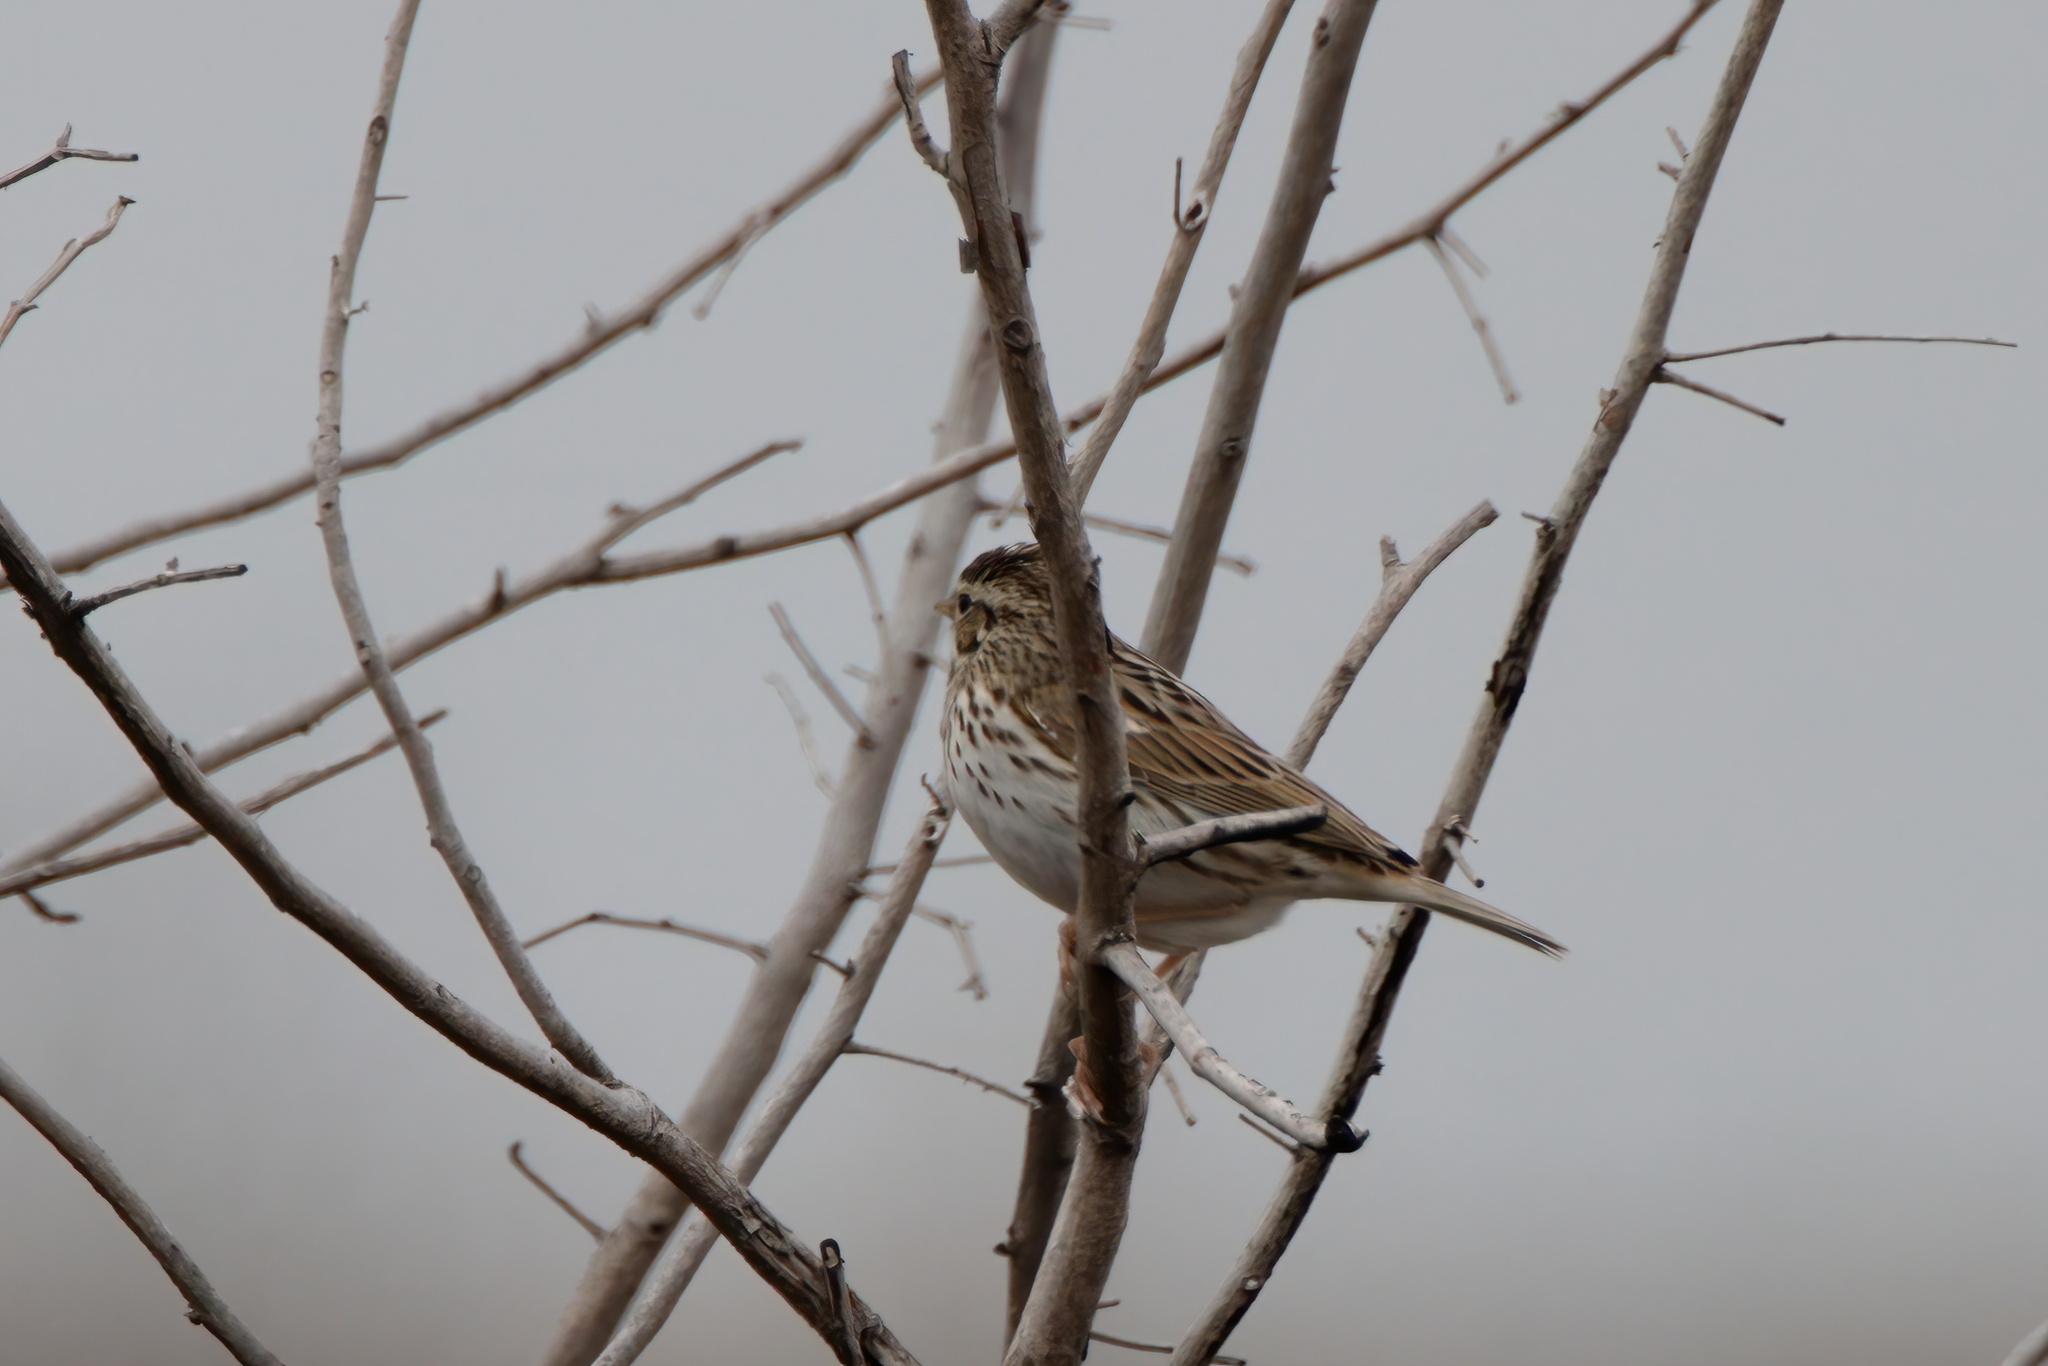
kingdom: Animalia
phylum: Chordata
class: Aves
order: Passeriformes
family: Passerellidae
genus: Passerculus
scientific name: Passerculus sandwichensis
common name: Savannah sparrow
